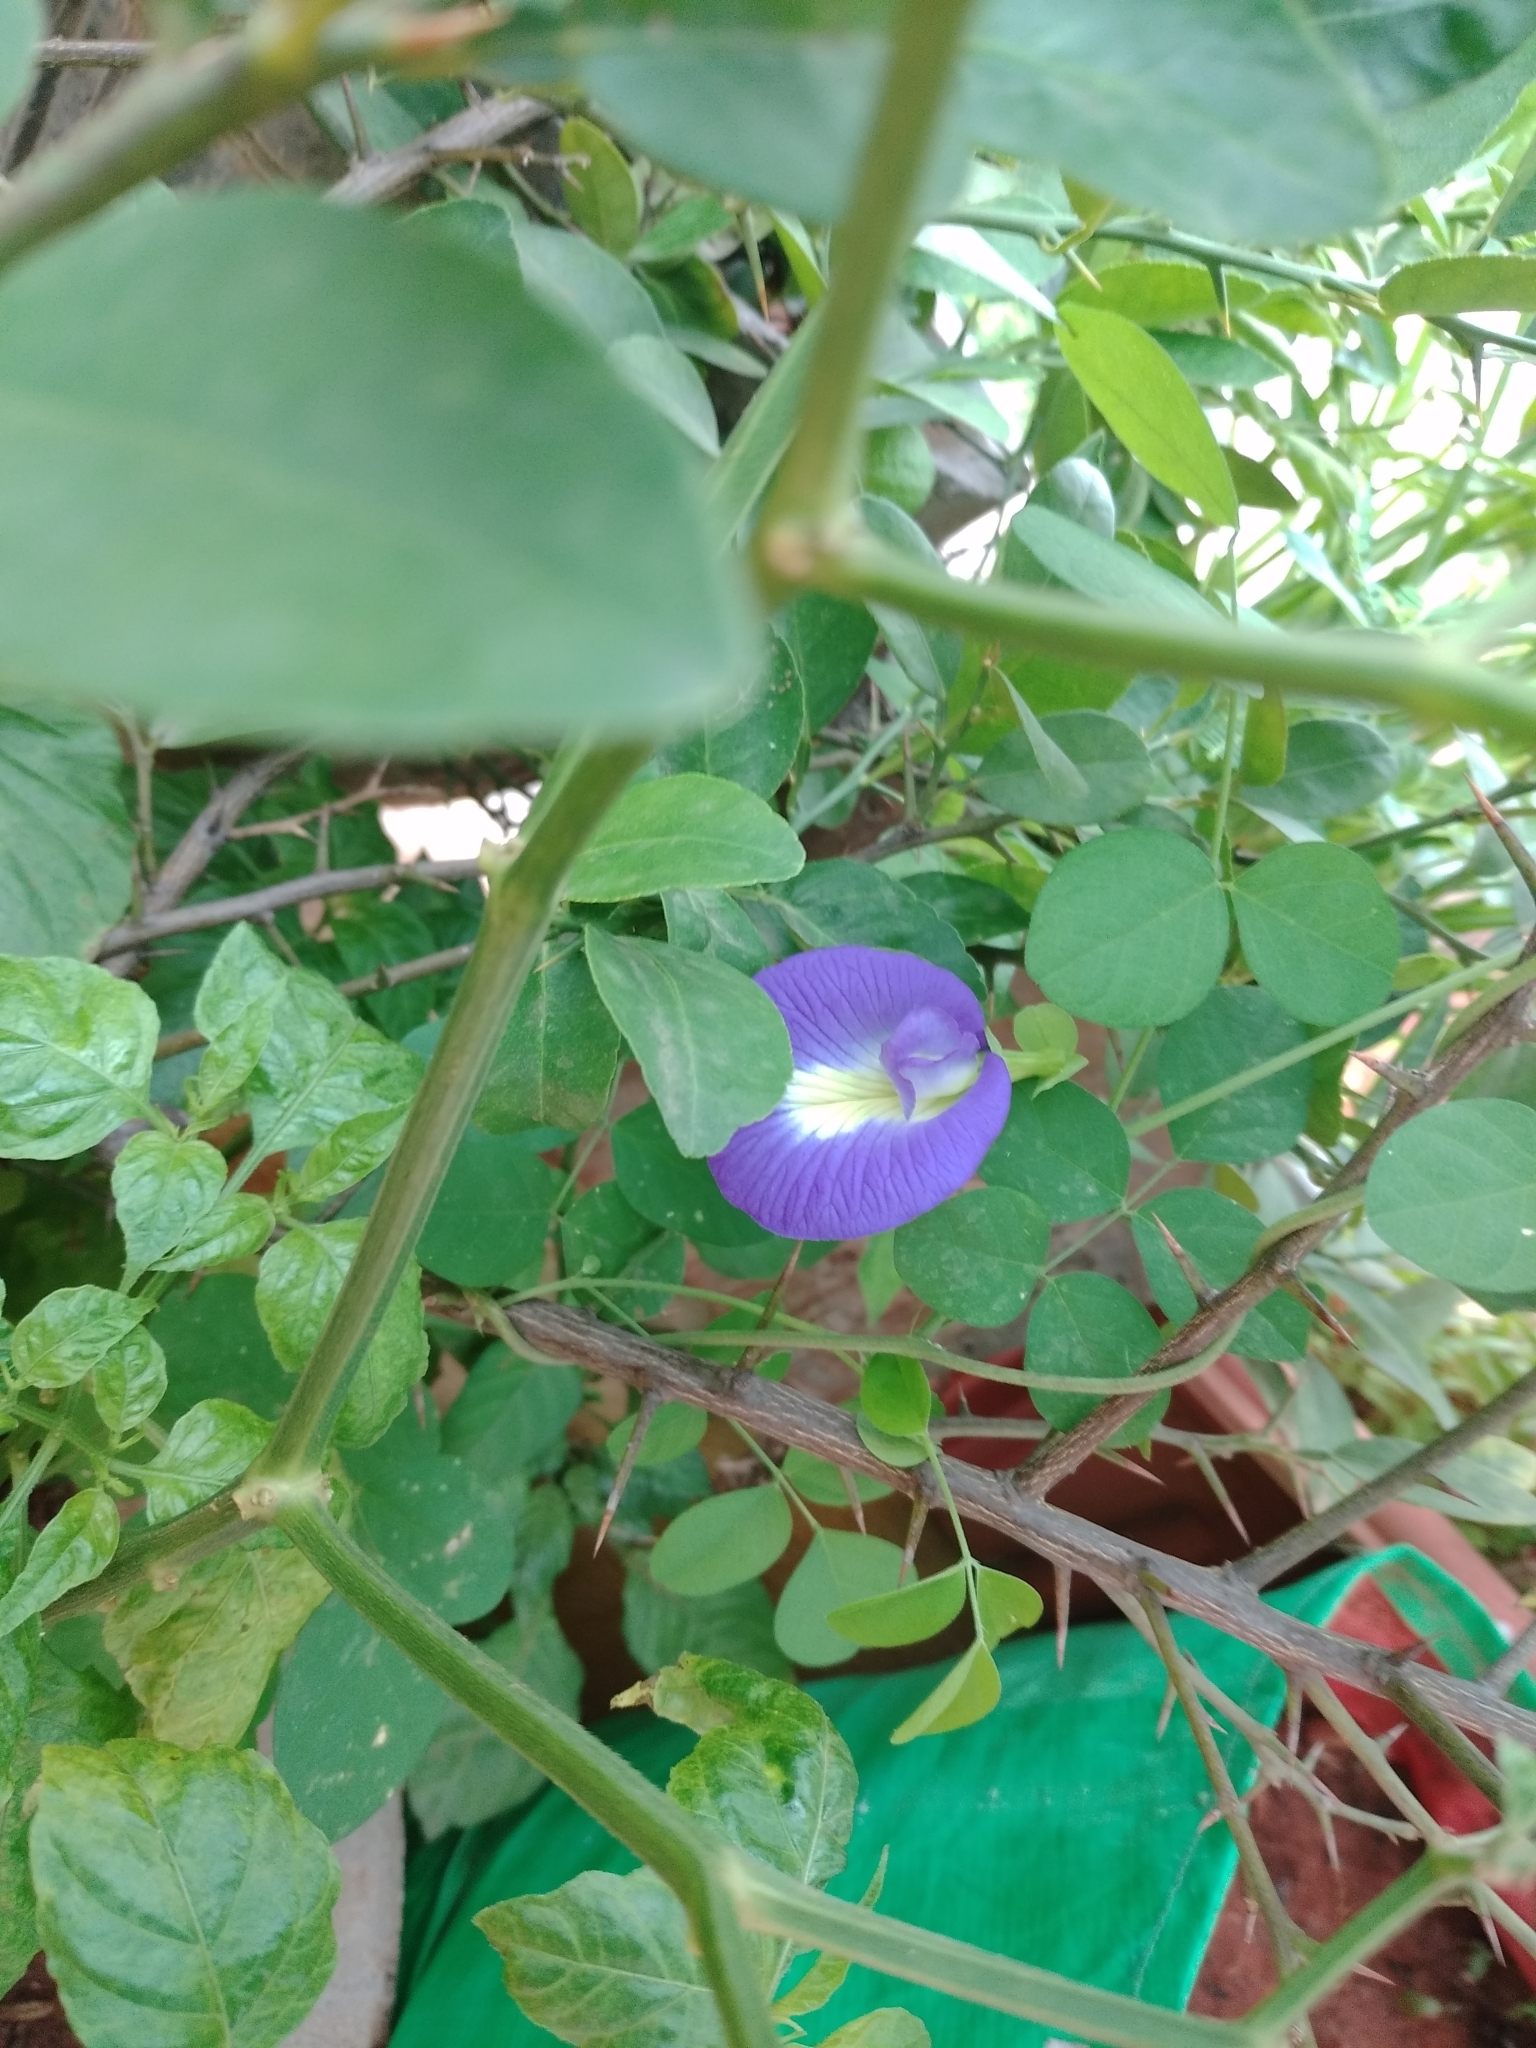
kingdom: Plantae
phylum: Tracheophyta
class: Magnoliopsida
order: Fabales
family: Fabaceae
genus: Clitoria
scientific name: Clitoria ternatea
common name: Asian pigeonwings
